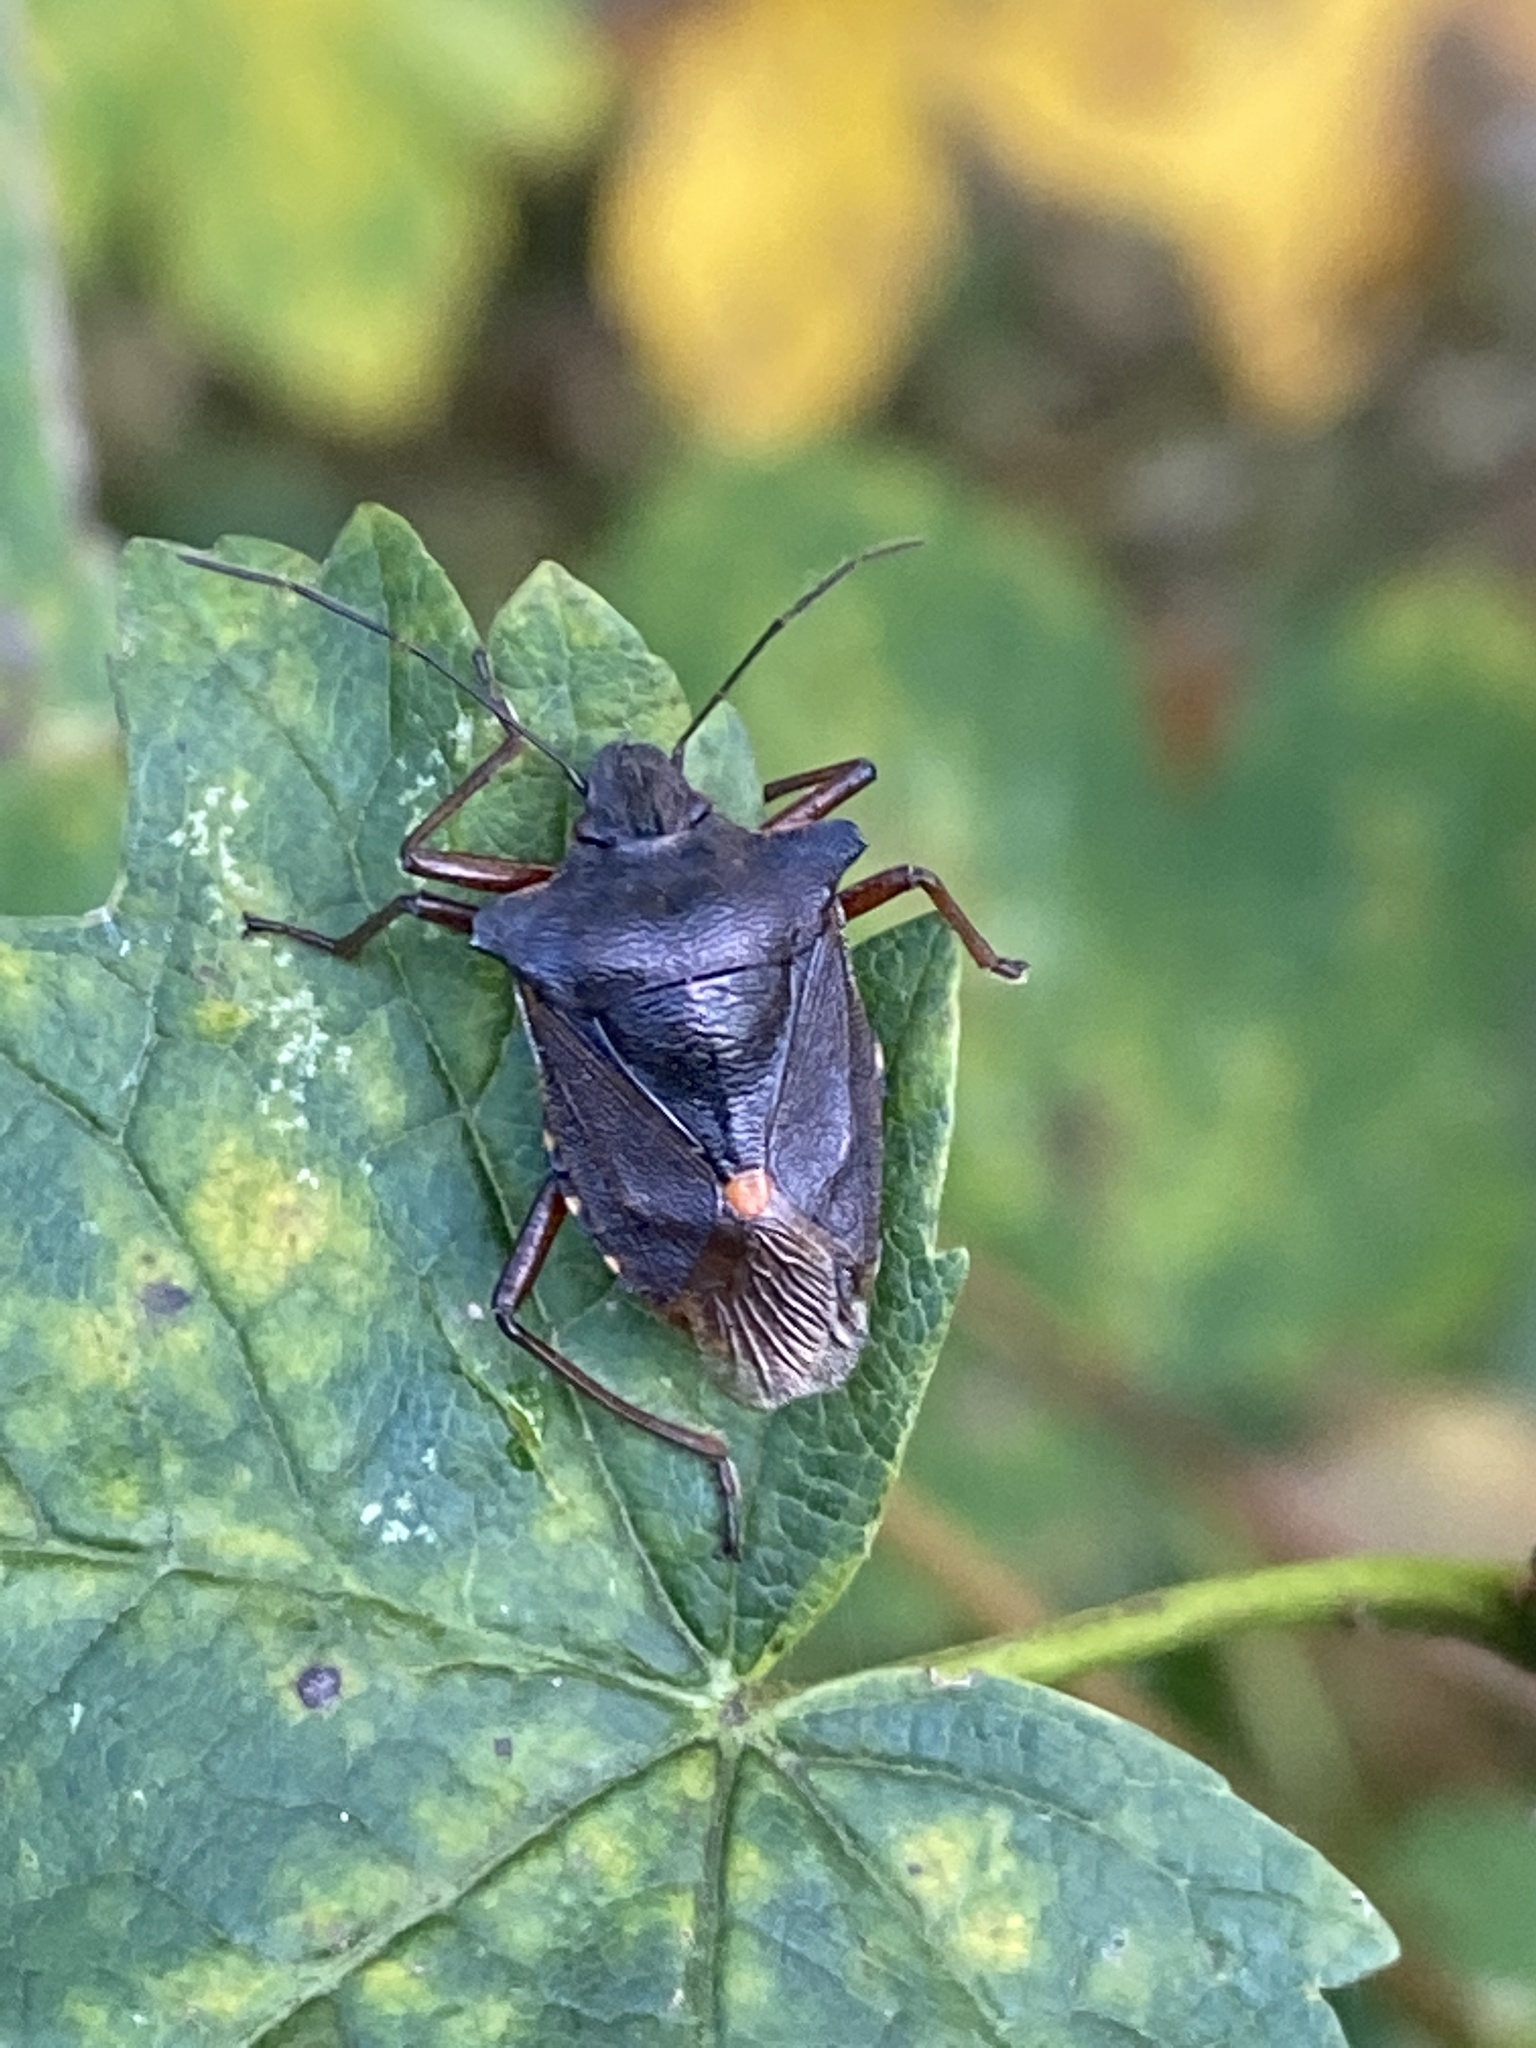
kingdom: Animalia
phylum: Arthropoda
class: Insecta
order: Hemiptera
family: Pentatomidae
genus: Pentatoma
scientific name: Pentatoma rufipes
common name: Forest bug
